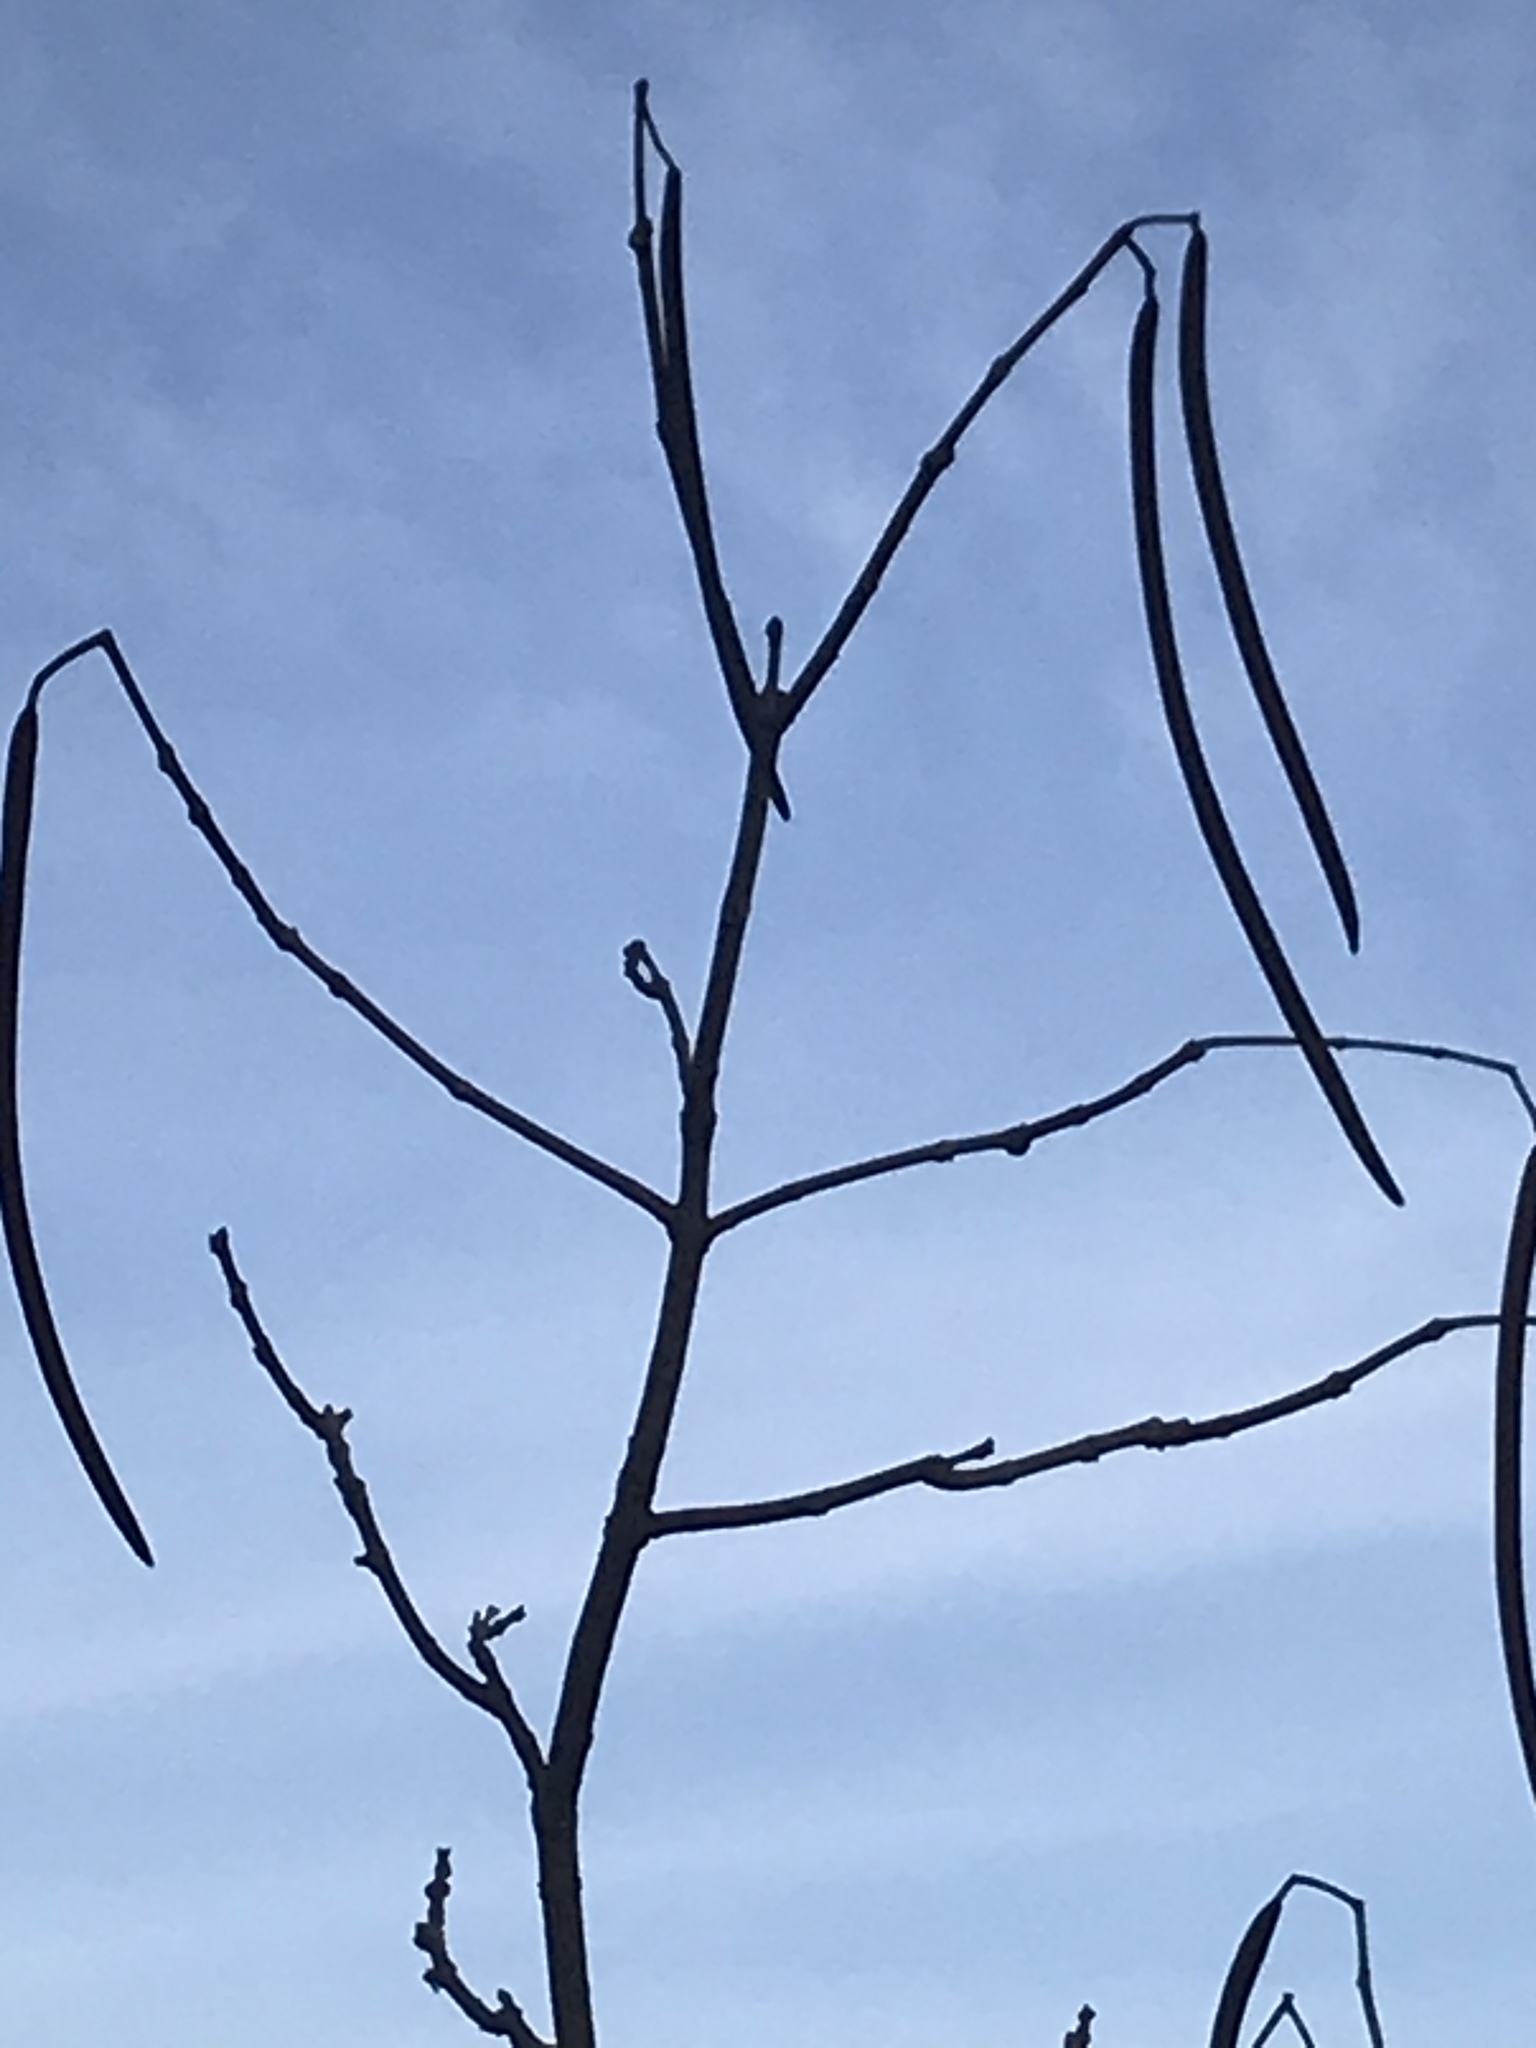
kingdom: Plantae
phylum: Tracheophyta
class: Magnoliopsida
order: Lamiales
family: Bignoniaceae
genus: Catalpa
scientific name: Catalpa speciosa
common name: Northern catalpa
